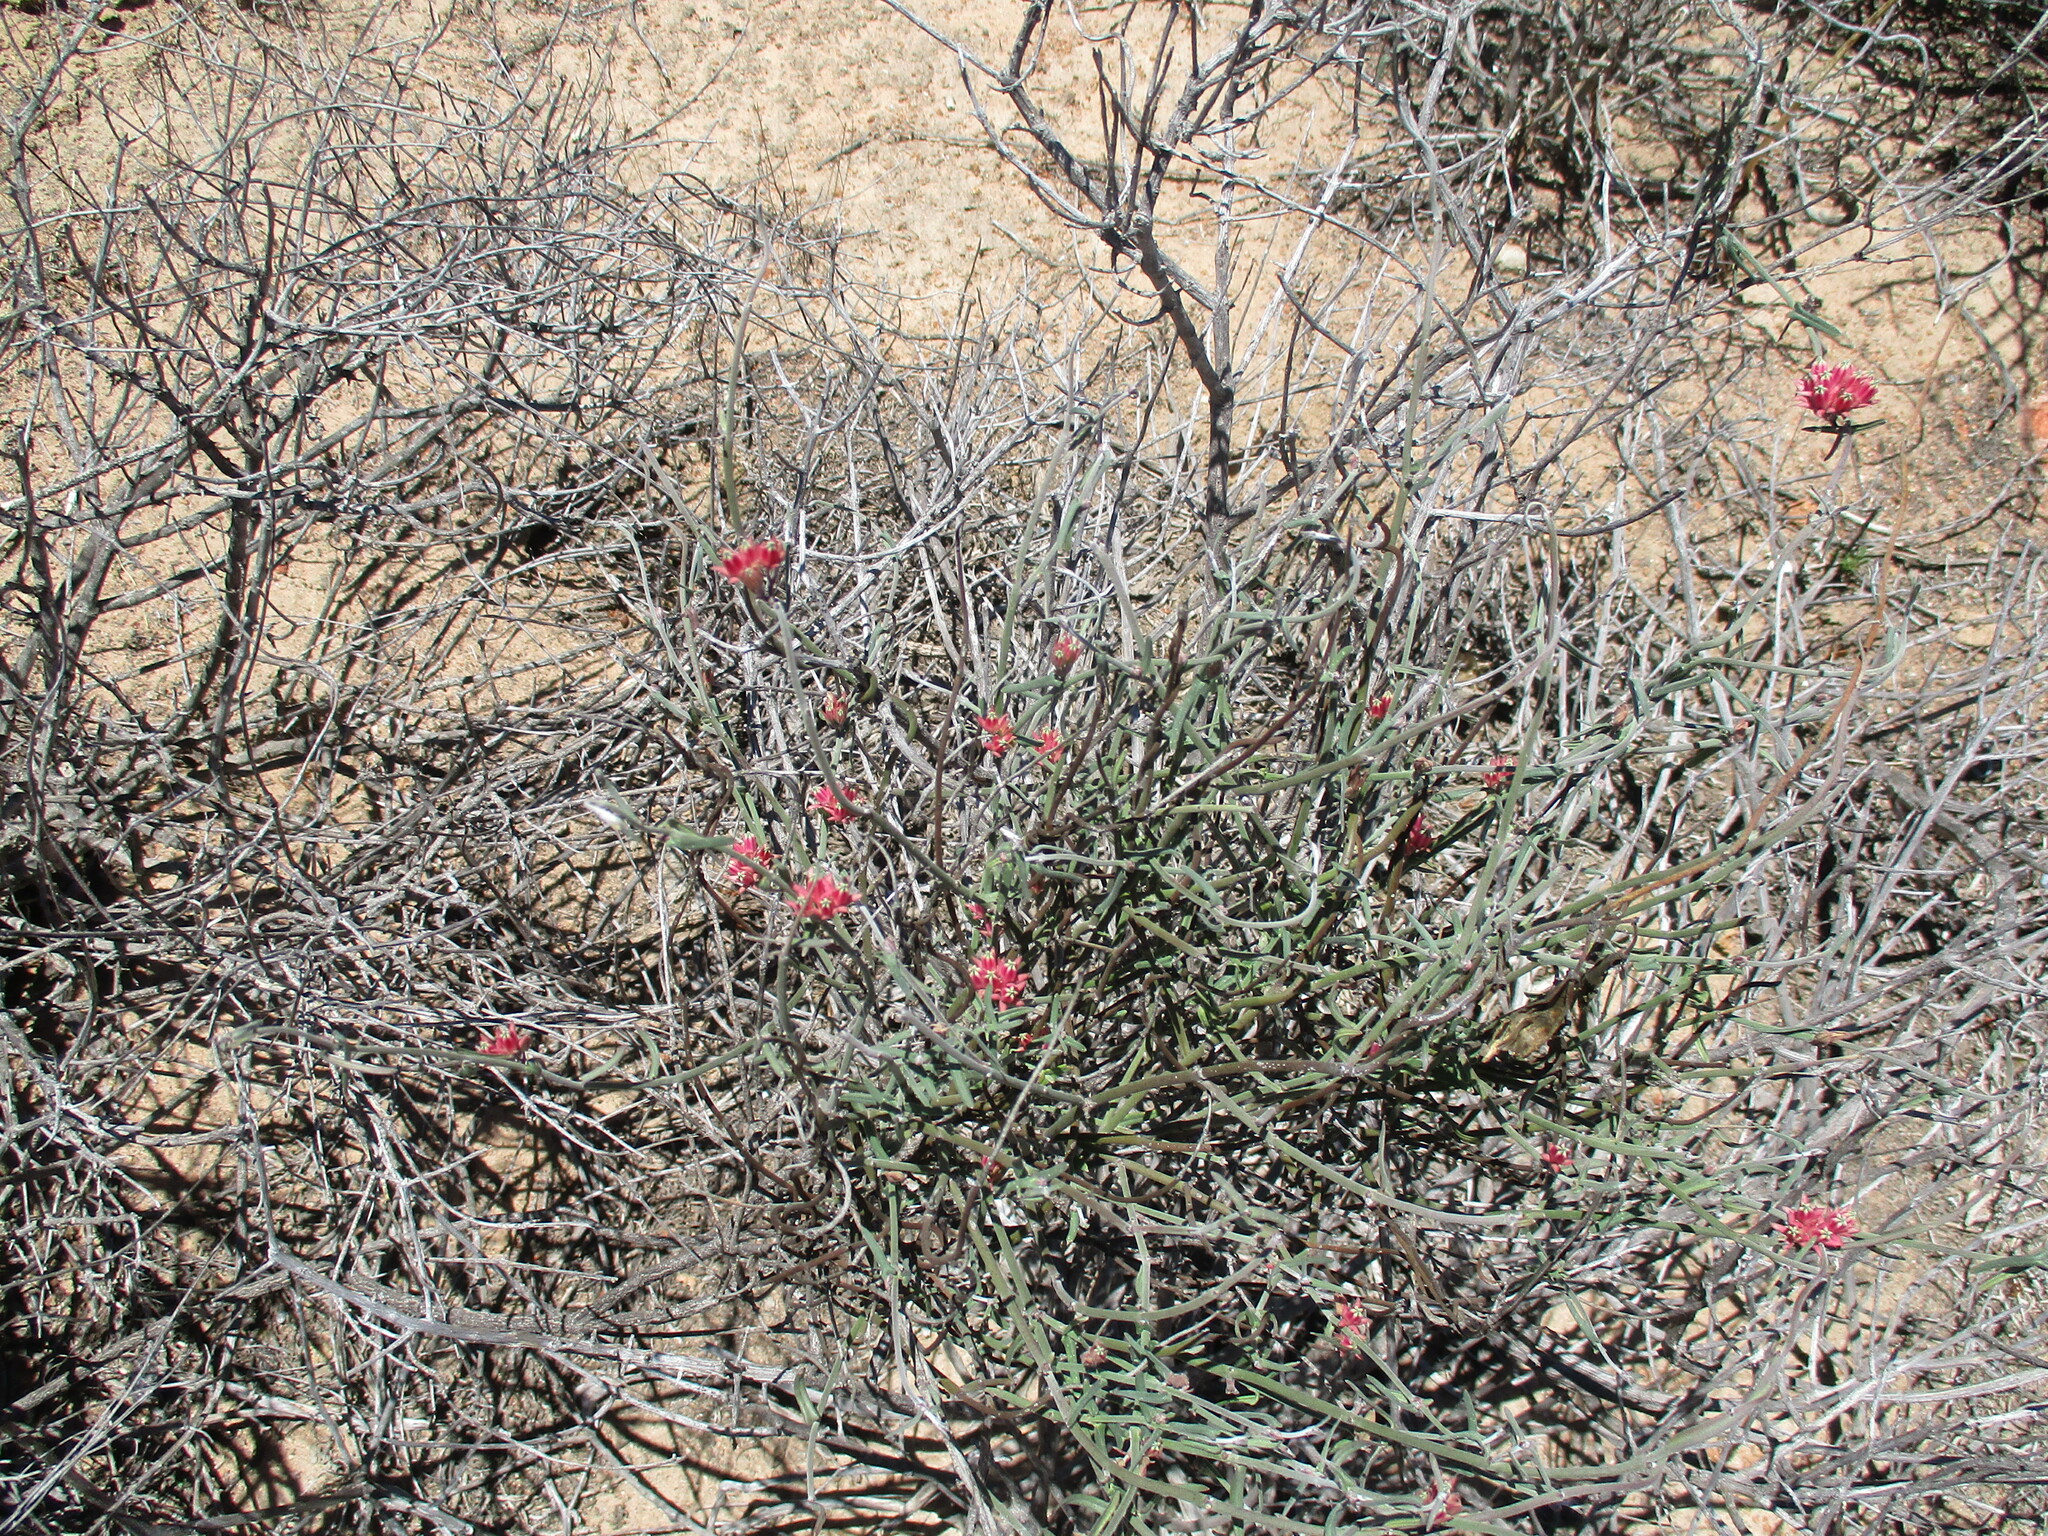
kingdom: Plantae
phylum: Tracheophyta
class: Magnoliopsida
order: Gentianales
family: Apocynaceae
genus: Microloma
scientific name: Microloma sagittatum
